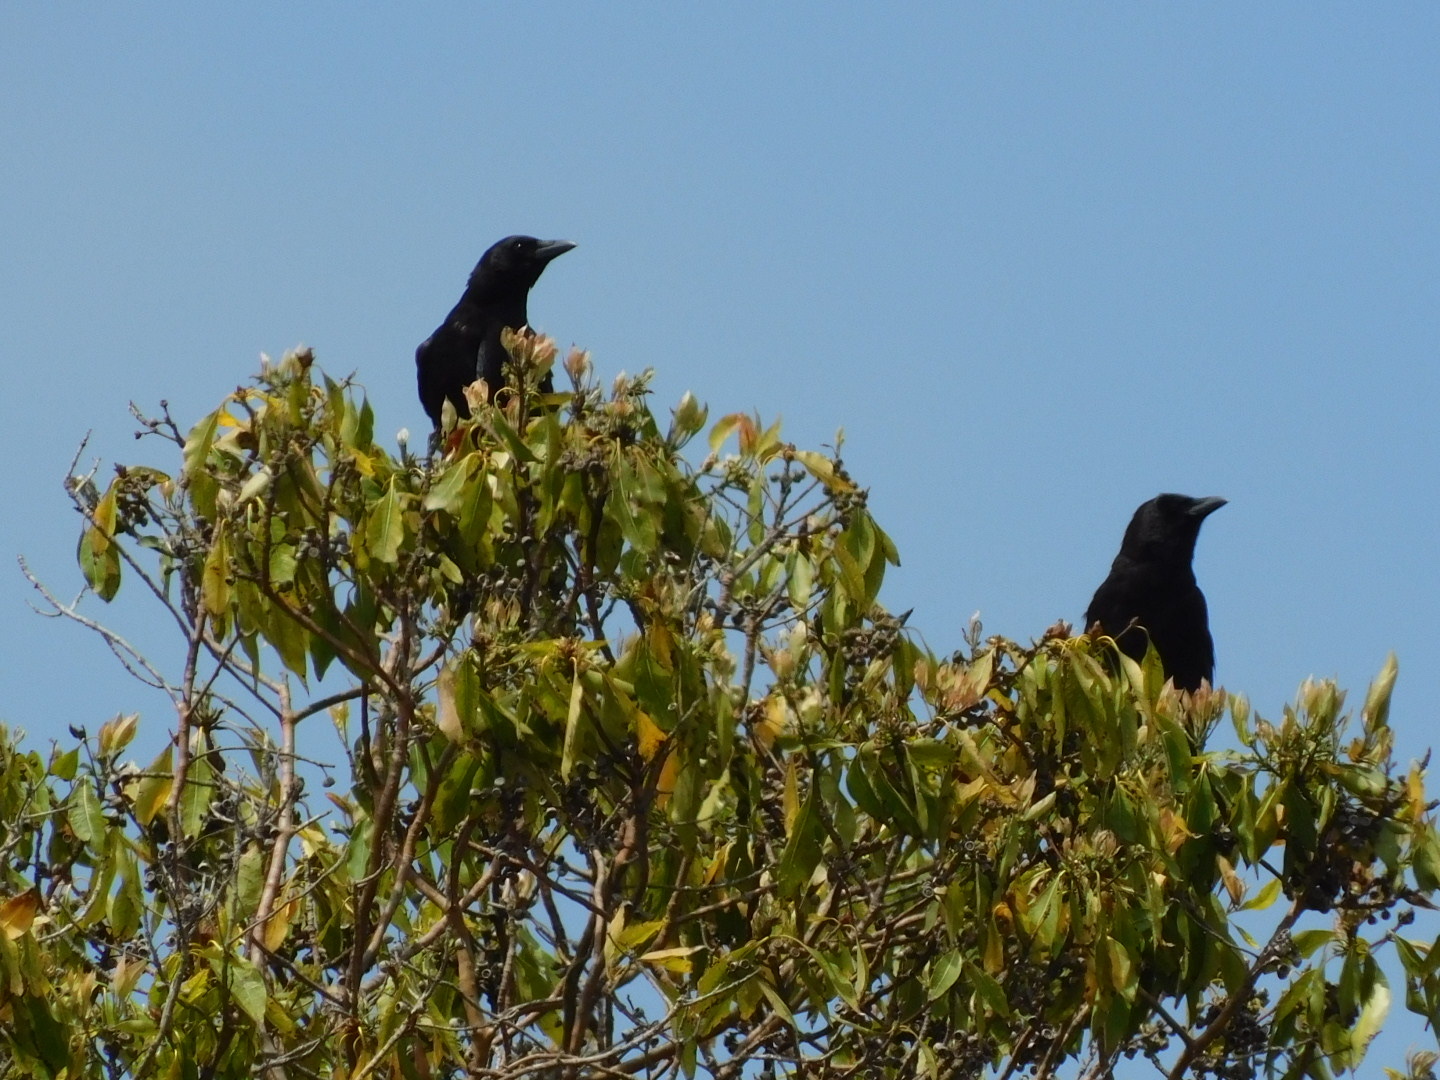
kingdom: Animalia
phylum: Chordata
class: Aves
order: Passeriformes
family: Corvidae
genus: Corvus
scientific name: Corvus brachyrhynchos
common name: American crow
